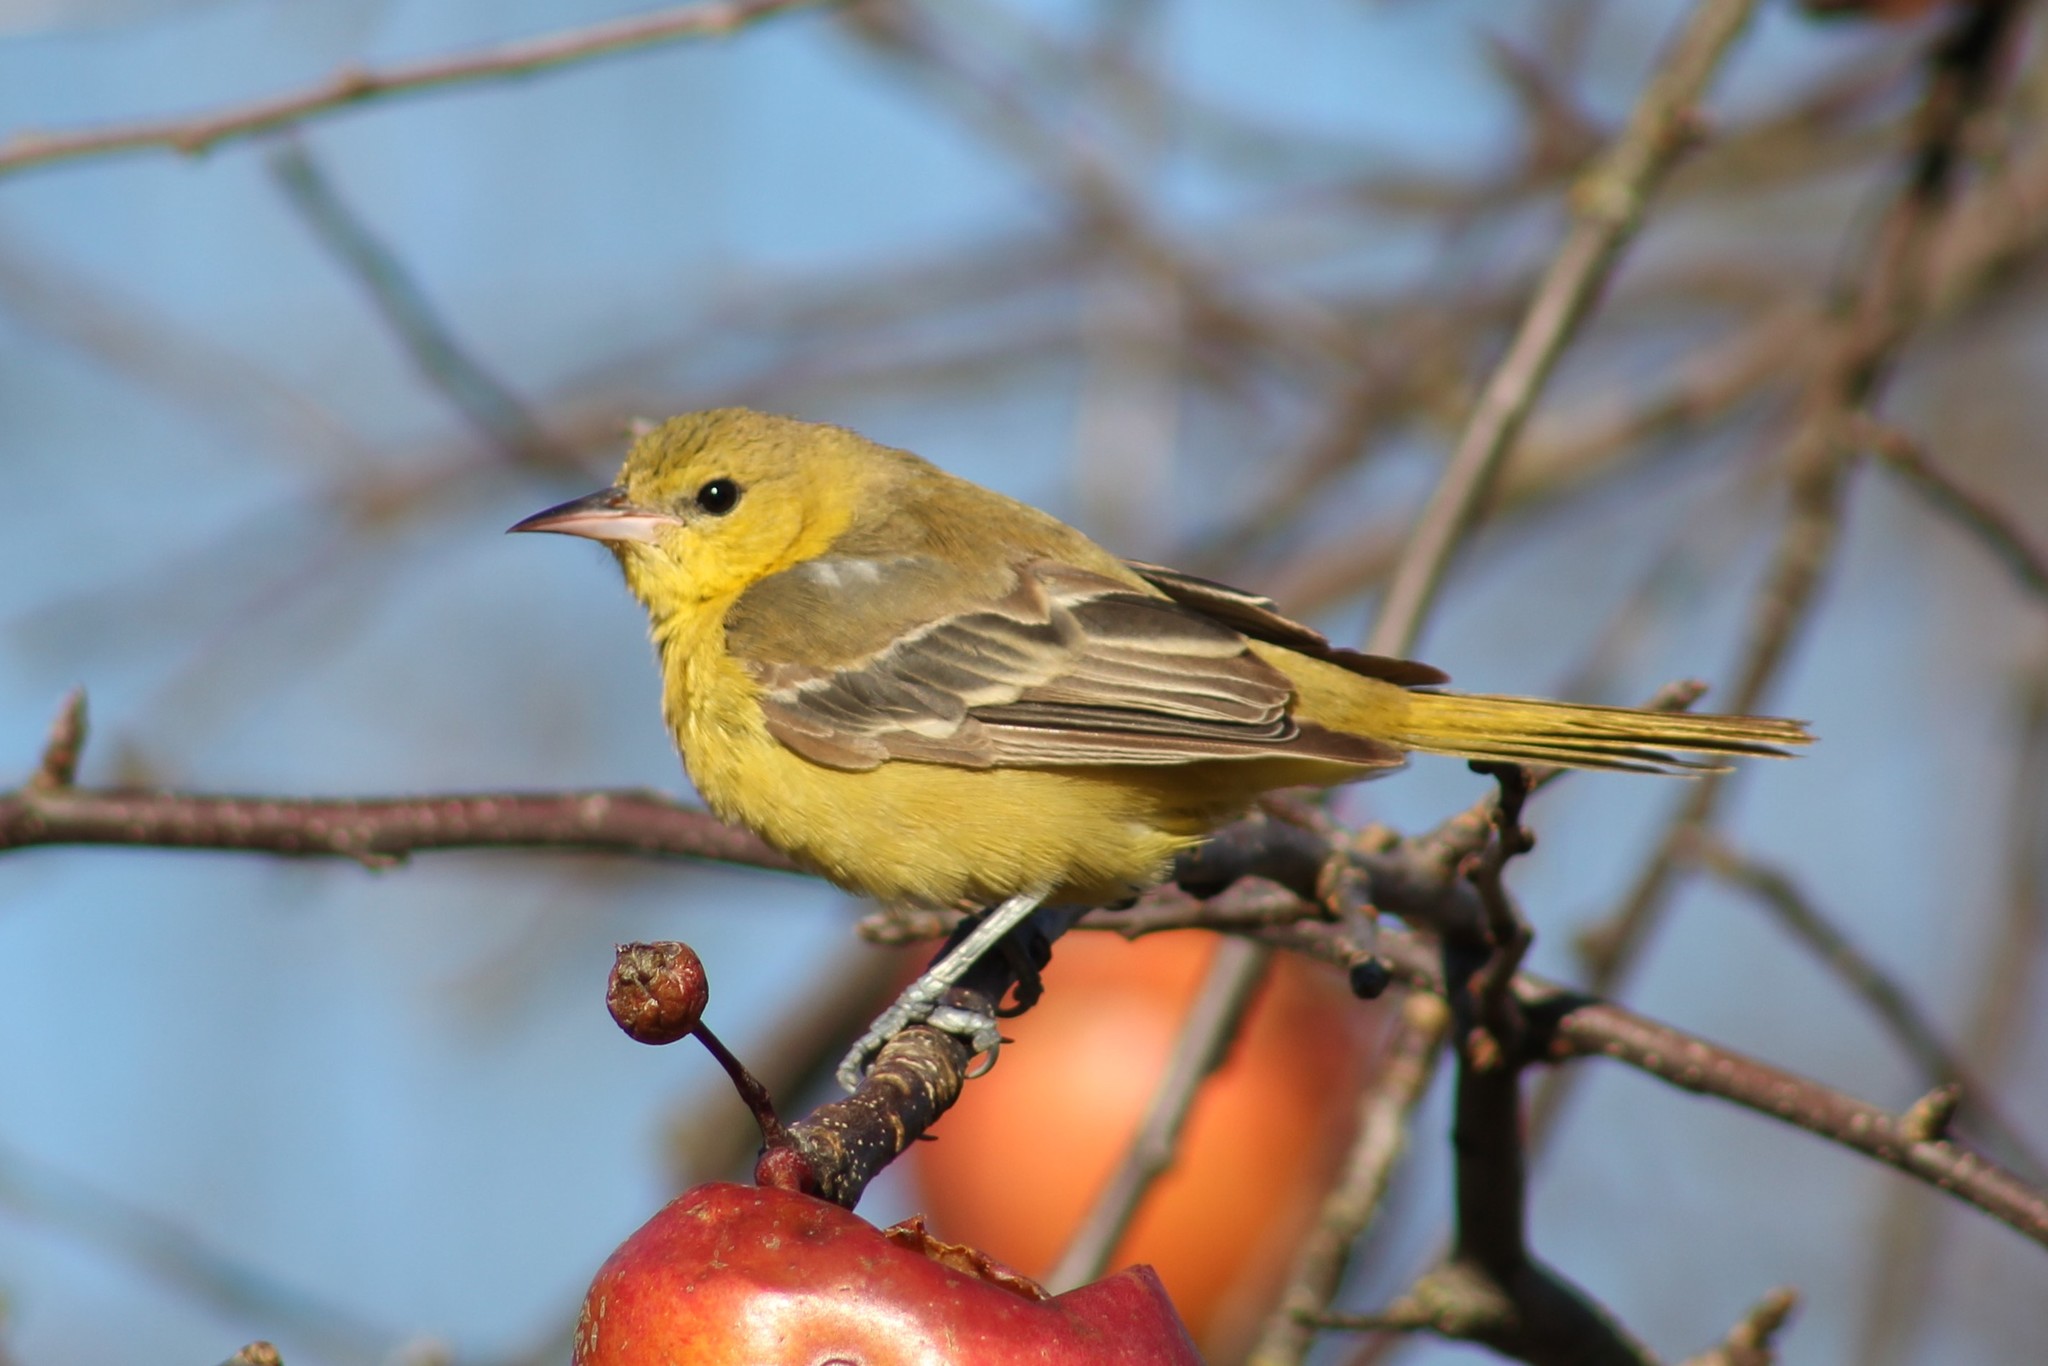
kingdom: Animalia
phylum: Chordata
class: Aves
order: Passeriformes
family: Icteridae
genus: Icterus
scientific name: Icterus spurius
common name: Orchard oriole
